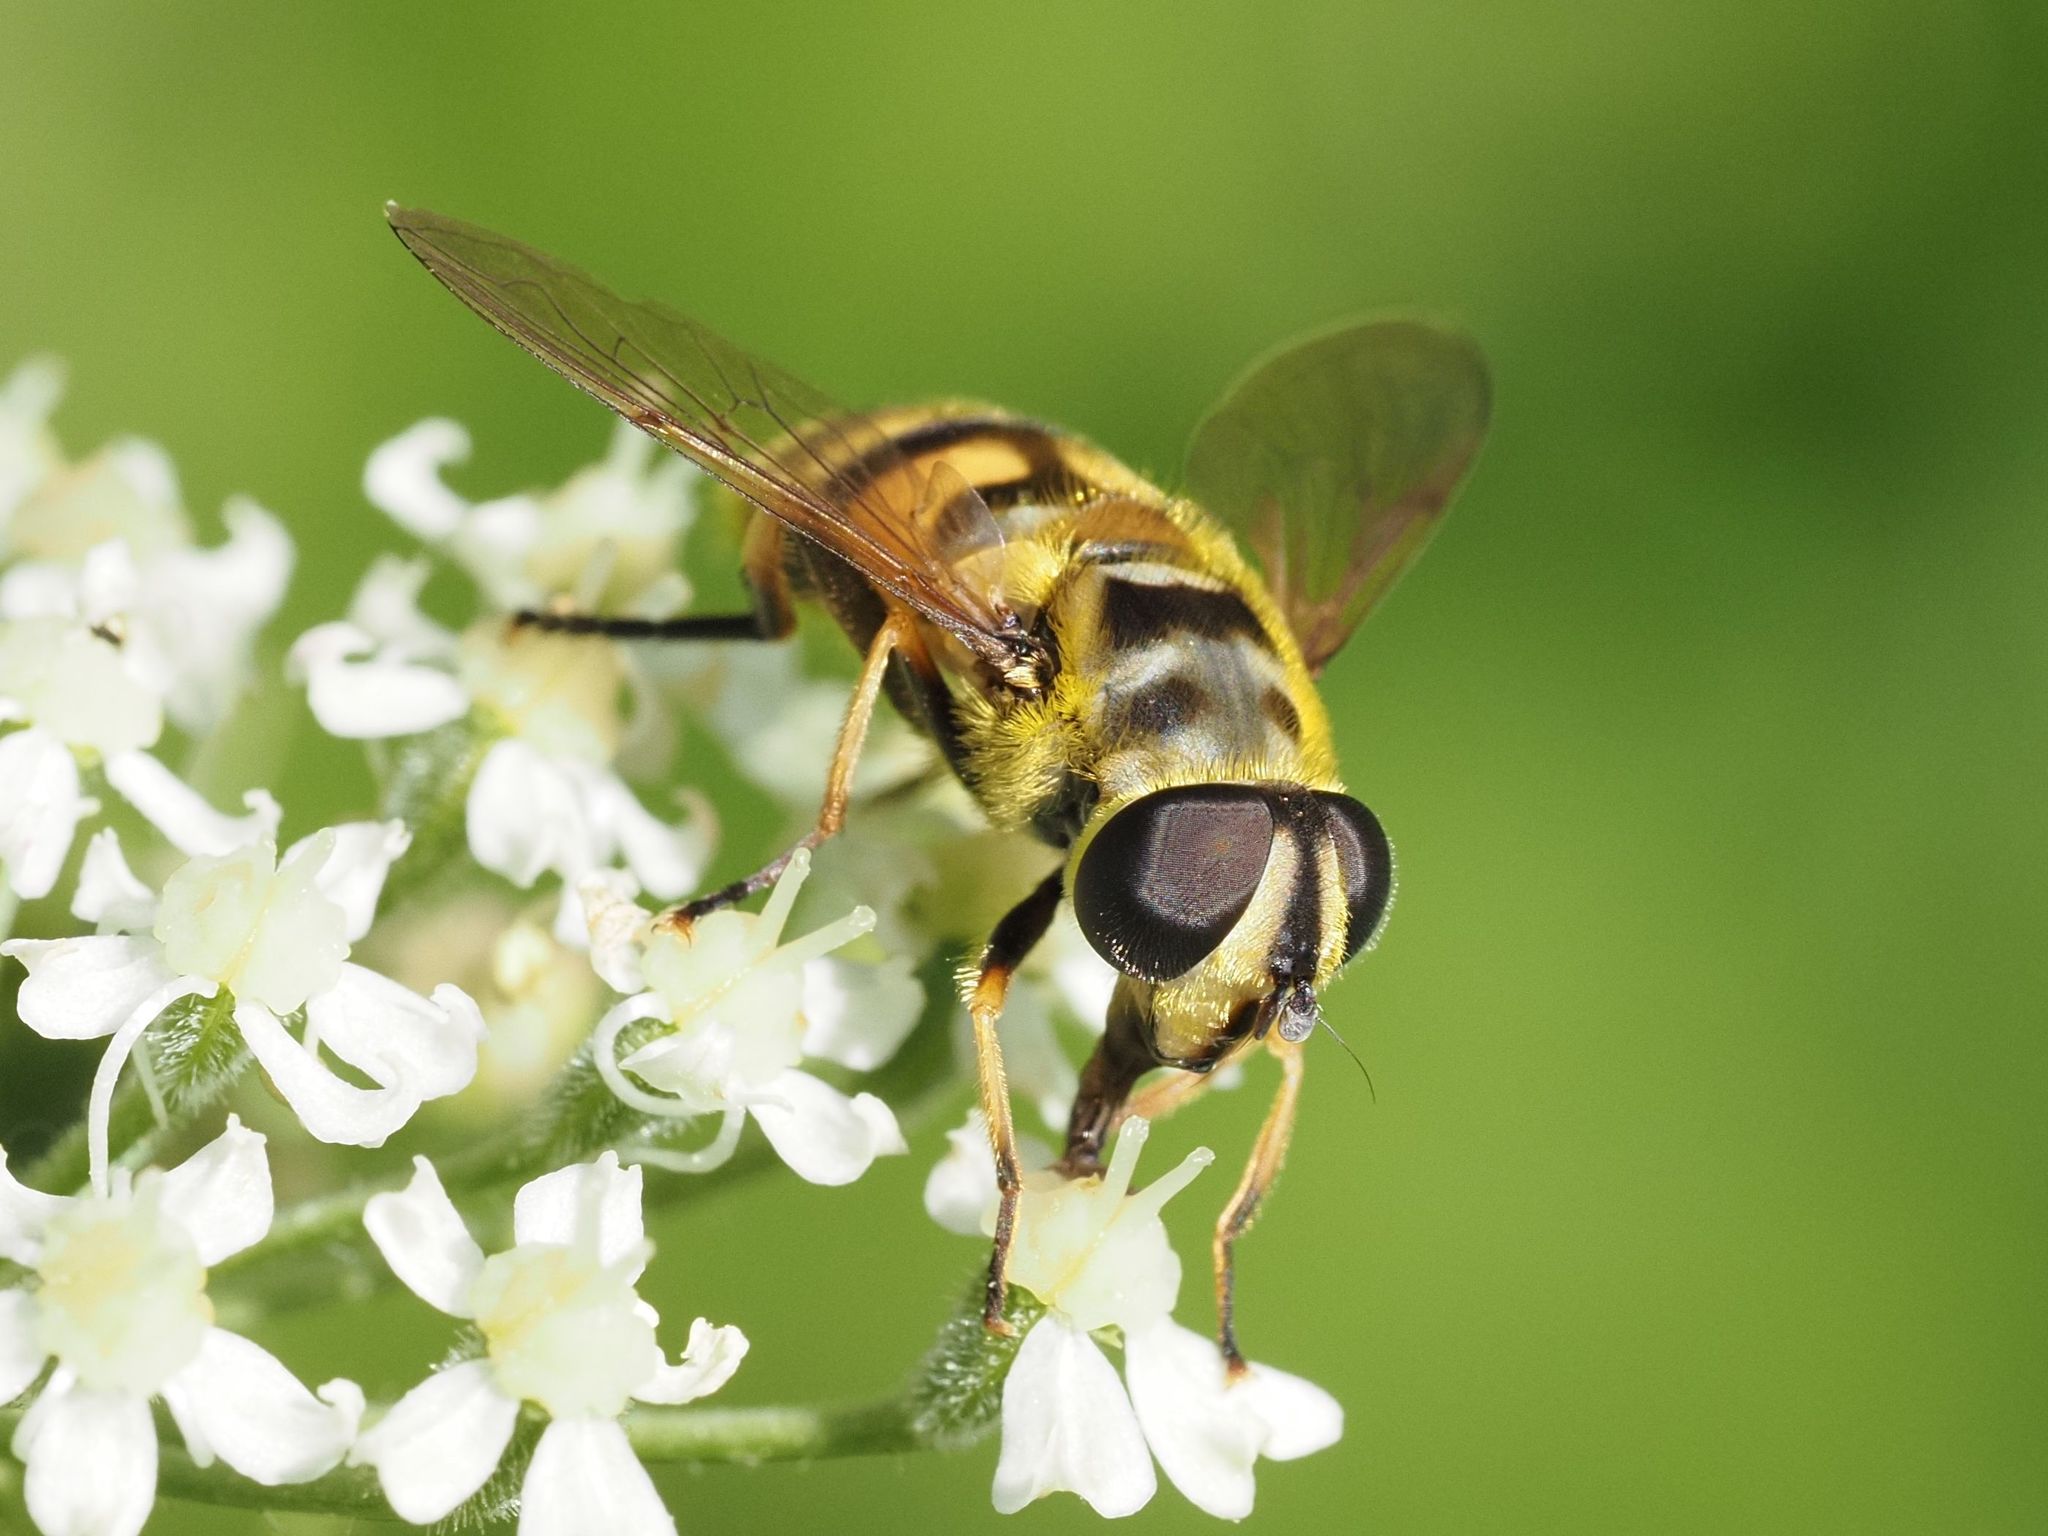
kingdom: Animalia
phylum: Arthropoda
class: Insecta
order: Diptera
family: Syrphidae
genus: Myathropa
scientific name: Myathropa florea
